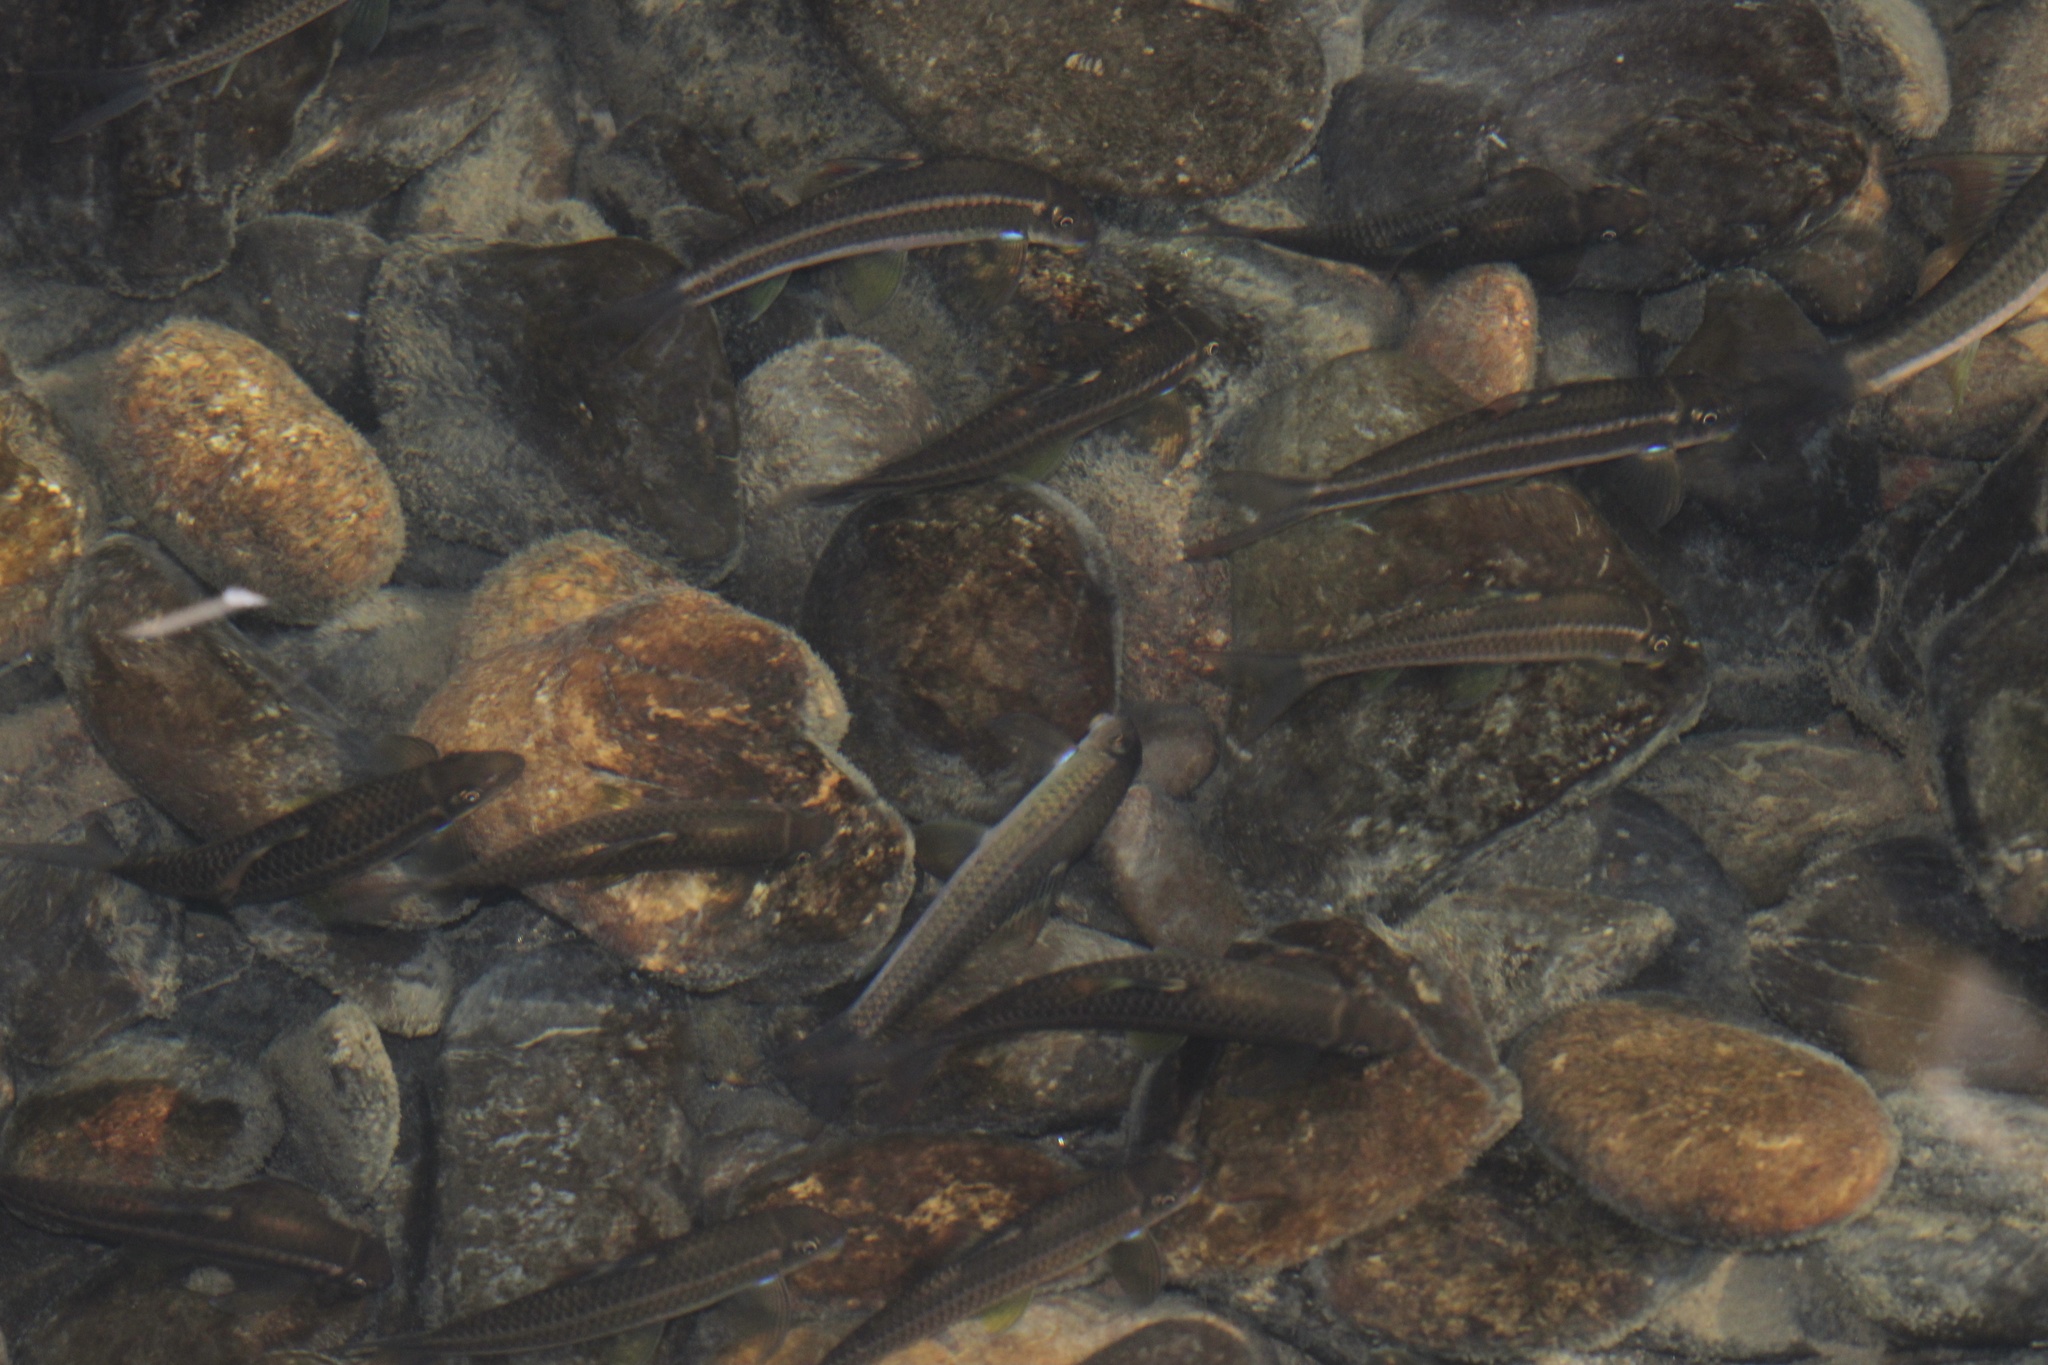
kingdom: Animalia
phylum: Chordata
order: Cypriniformes
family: Cyprinidae
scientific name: Cyprinidae
